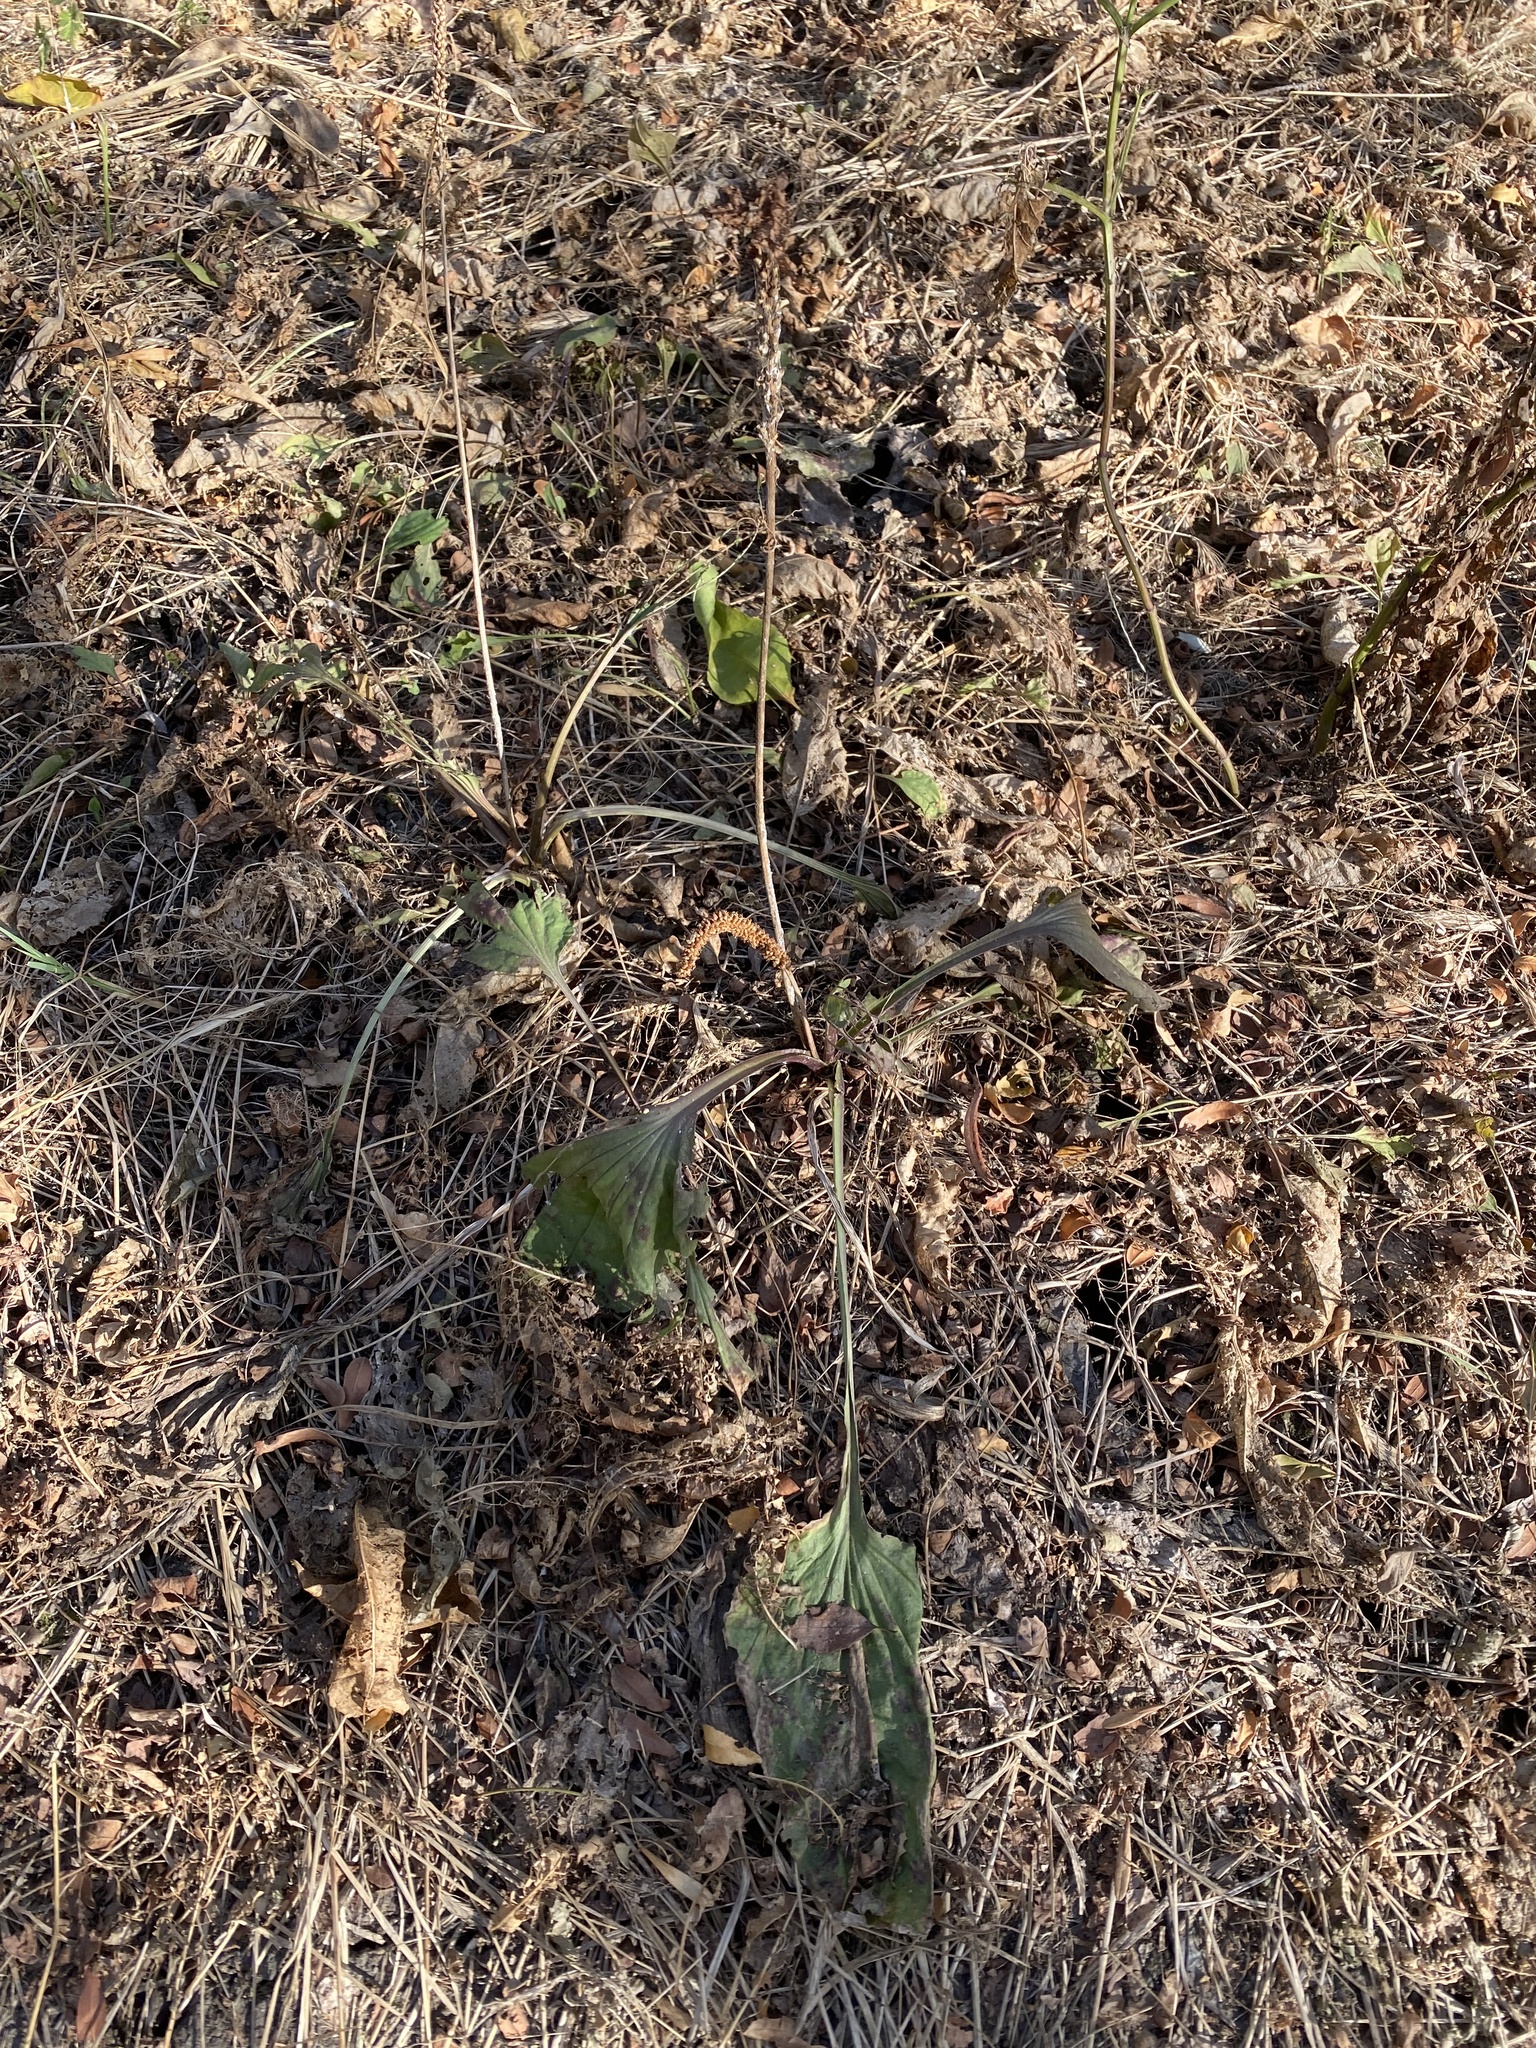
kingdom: Plantae
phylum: Tracheophyta
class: Magnoliopsida
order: Lamiales
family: Plantaginaceae
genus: Plantago
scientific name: Plantago major
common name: Common plantain
